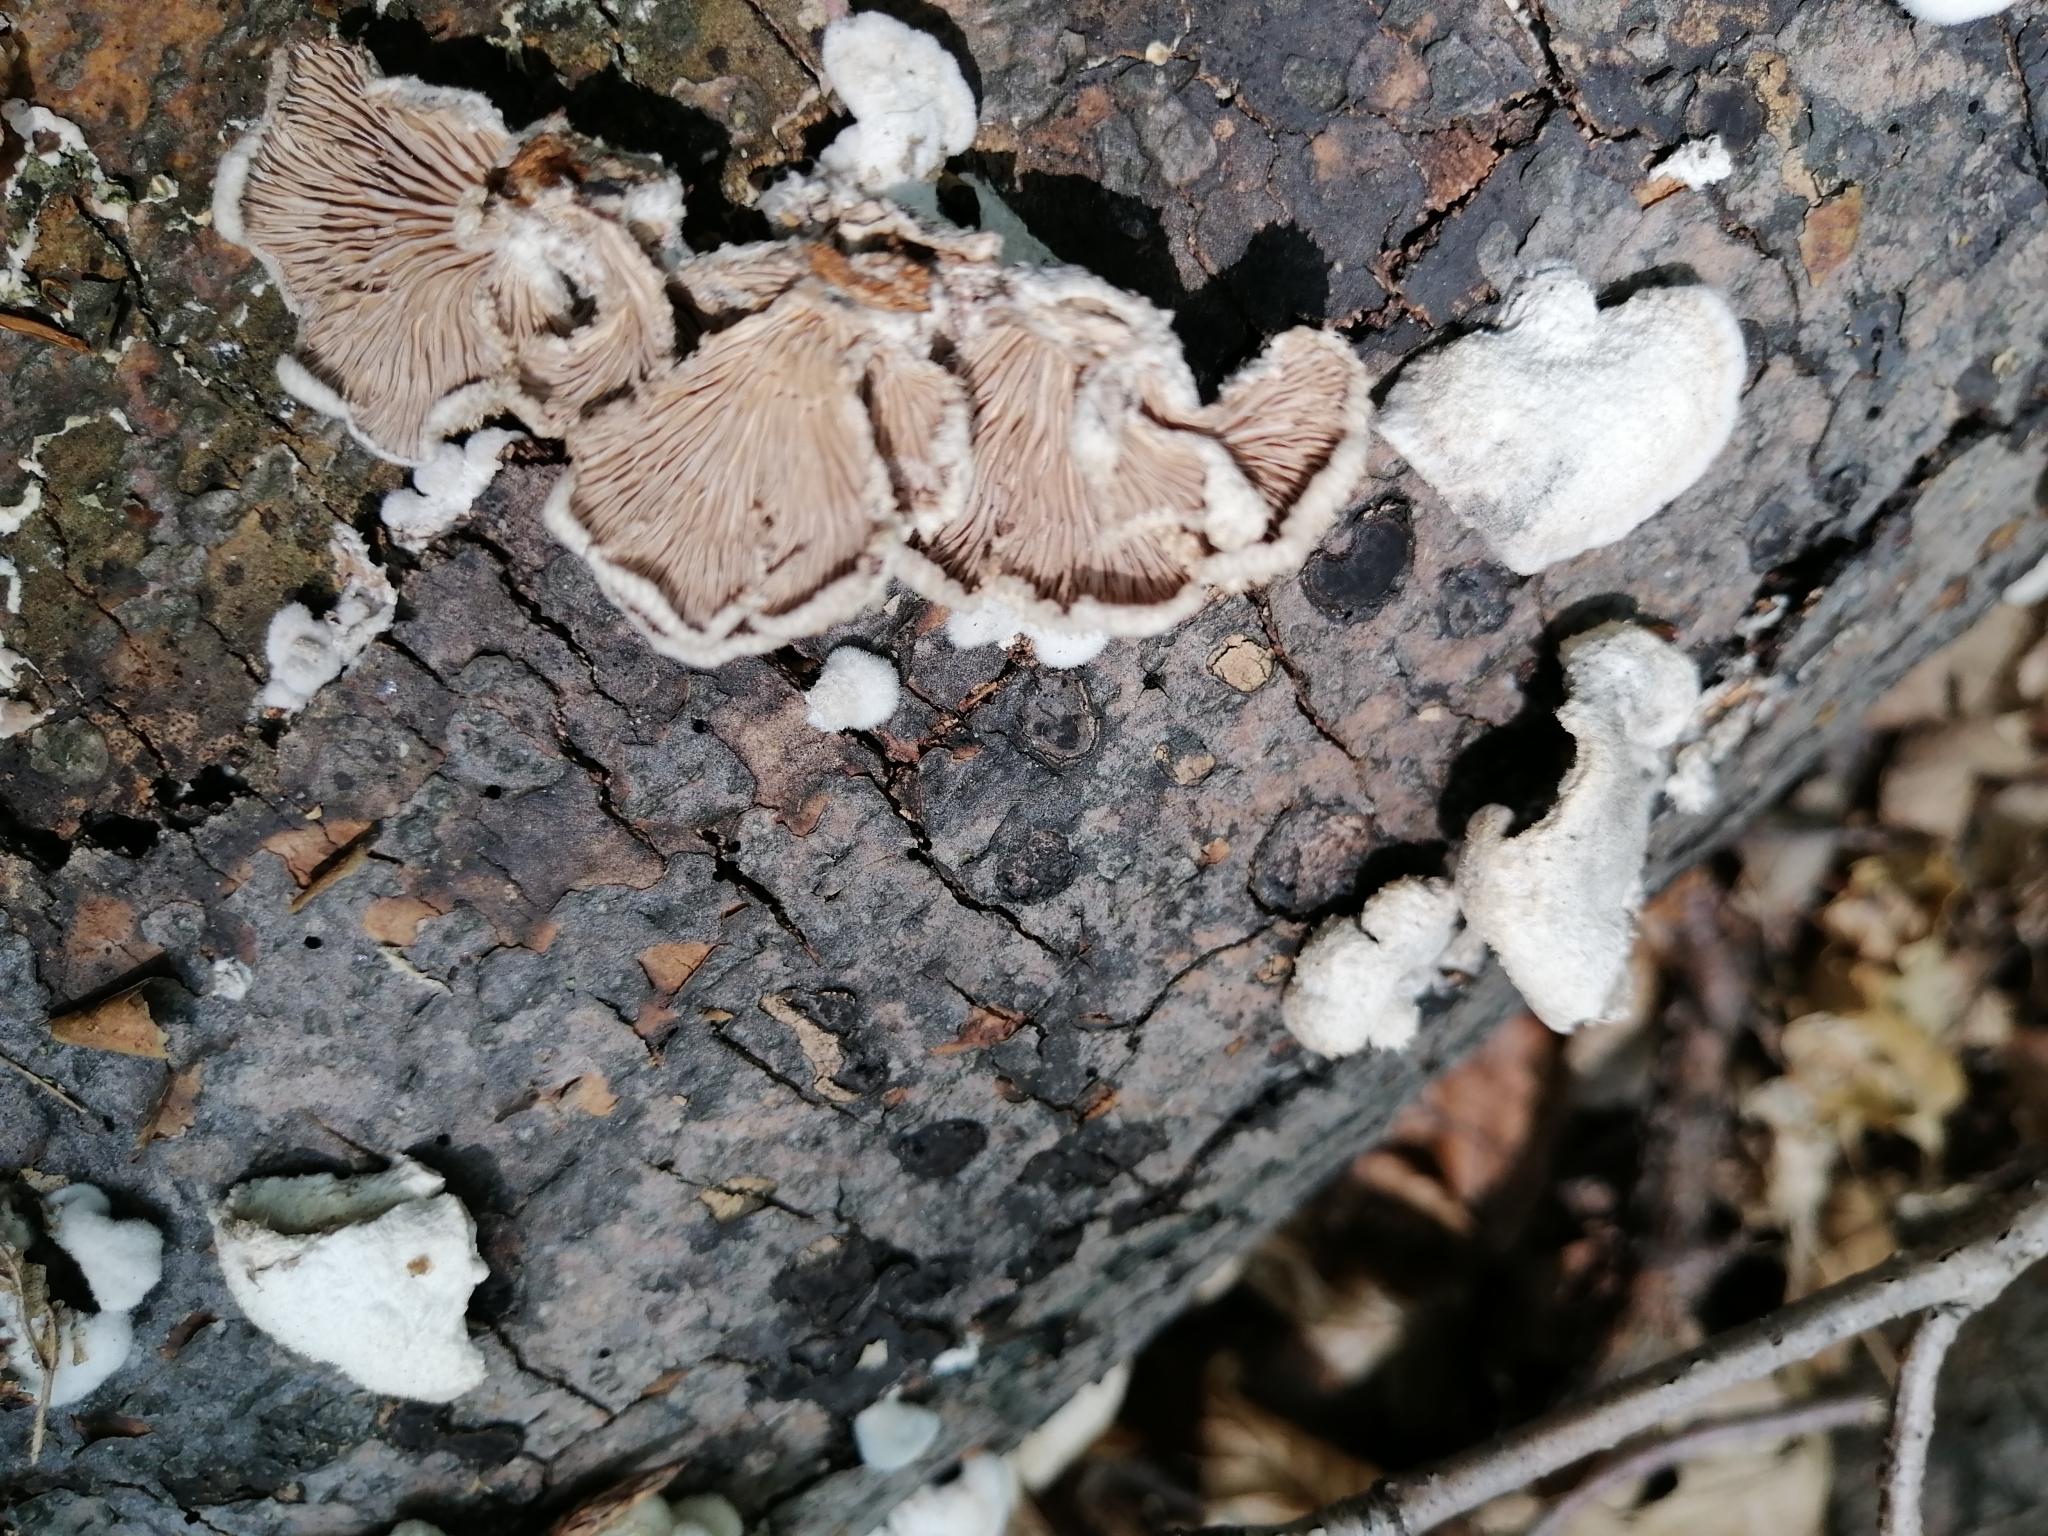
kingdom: Fungi
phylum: Basidiomycota
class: Agaricomycetes
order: Agaricales
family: Schizophyllaceae
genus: Schizophyllum
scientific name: Schizophyllum commune
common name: Common porecrust
